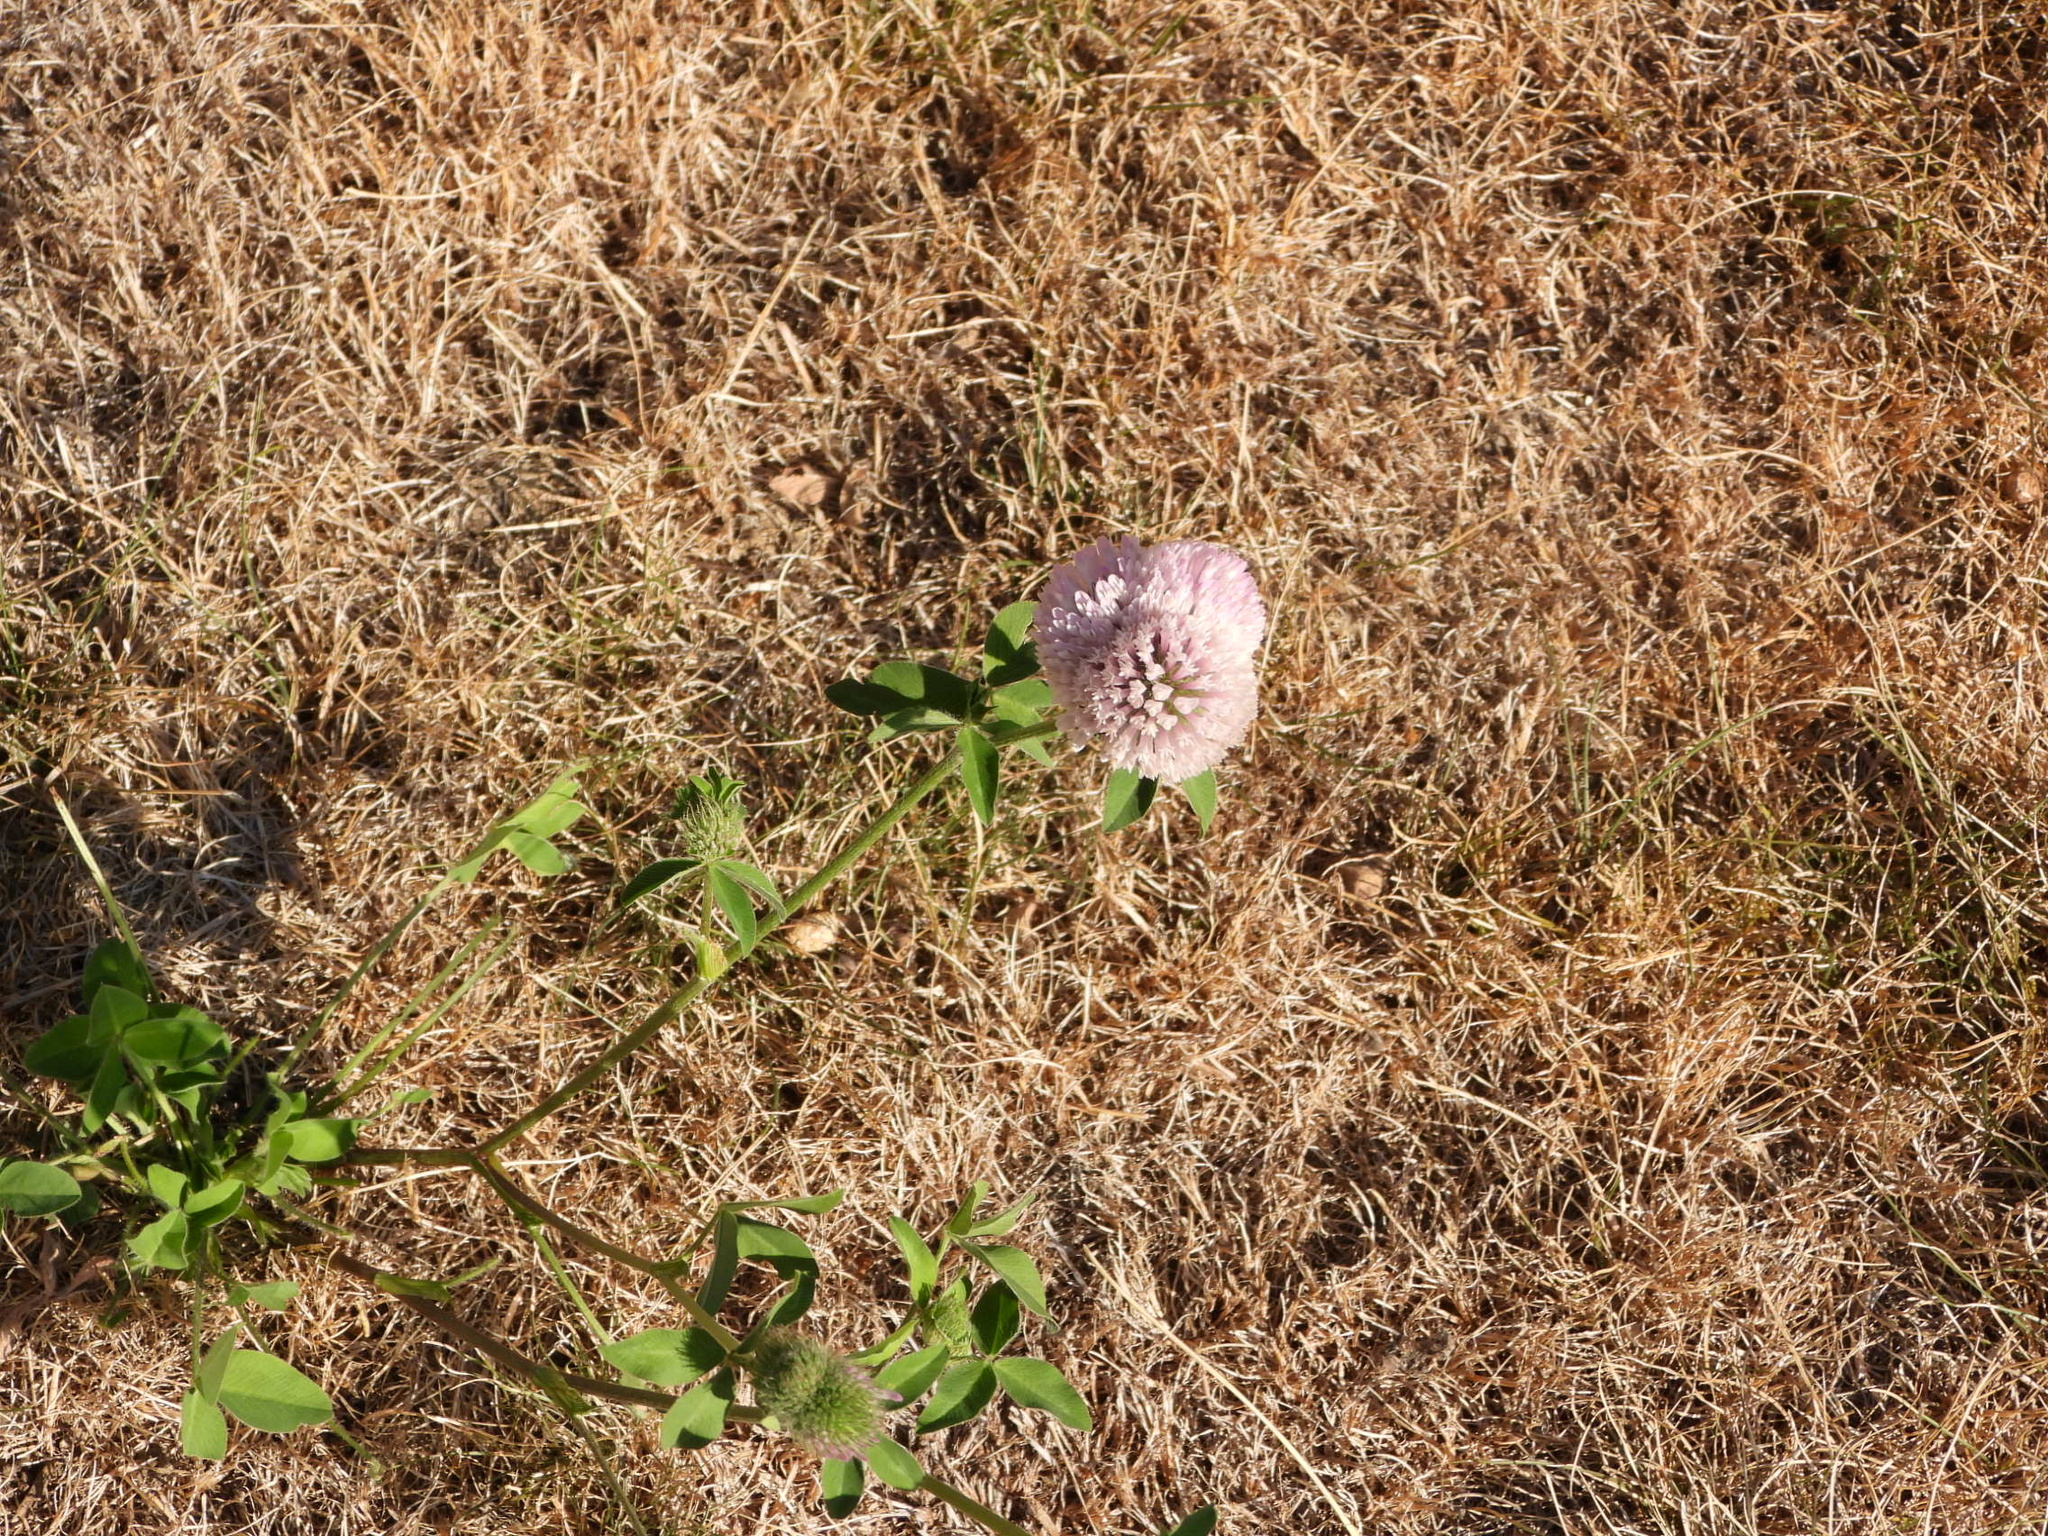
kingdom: Plantae
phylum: Tracheophyta
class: Magnoliopsida
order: Fabales
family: Fabaceae
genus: Trifolium
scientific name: Trifolium pratense
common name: Red clover
